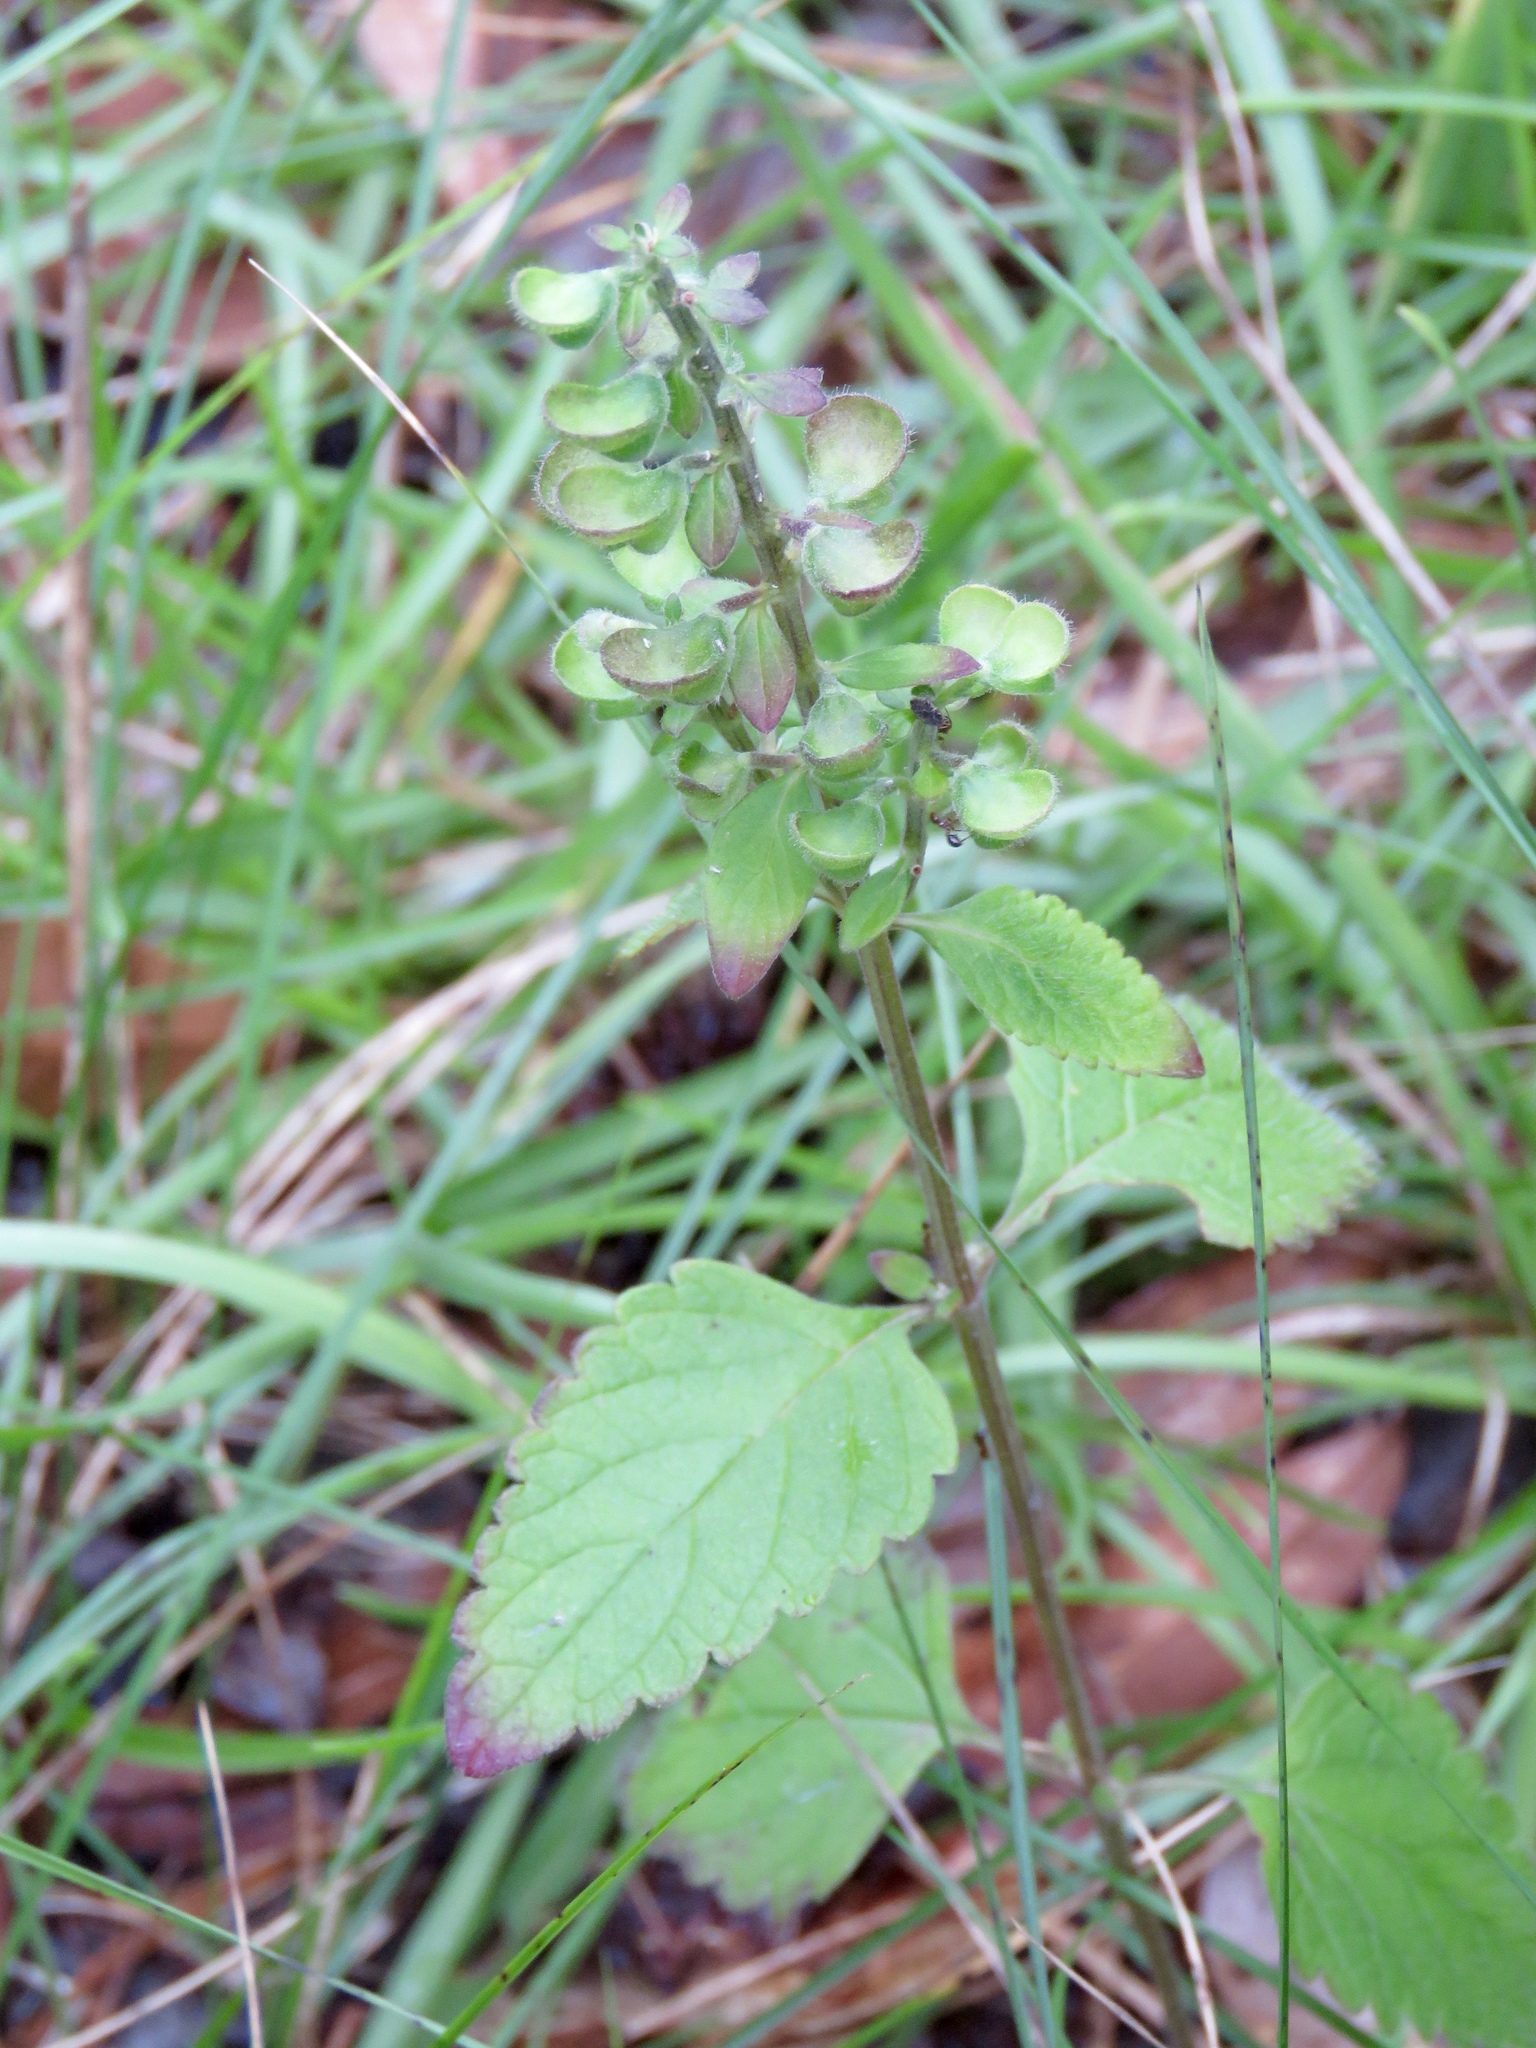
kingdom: Plantae
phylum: Tracheophyta
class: Magnoliopsida
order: Lamiales
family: Lamiaceae
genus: Scutellaria
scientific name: Scutellaria elliptica
